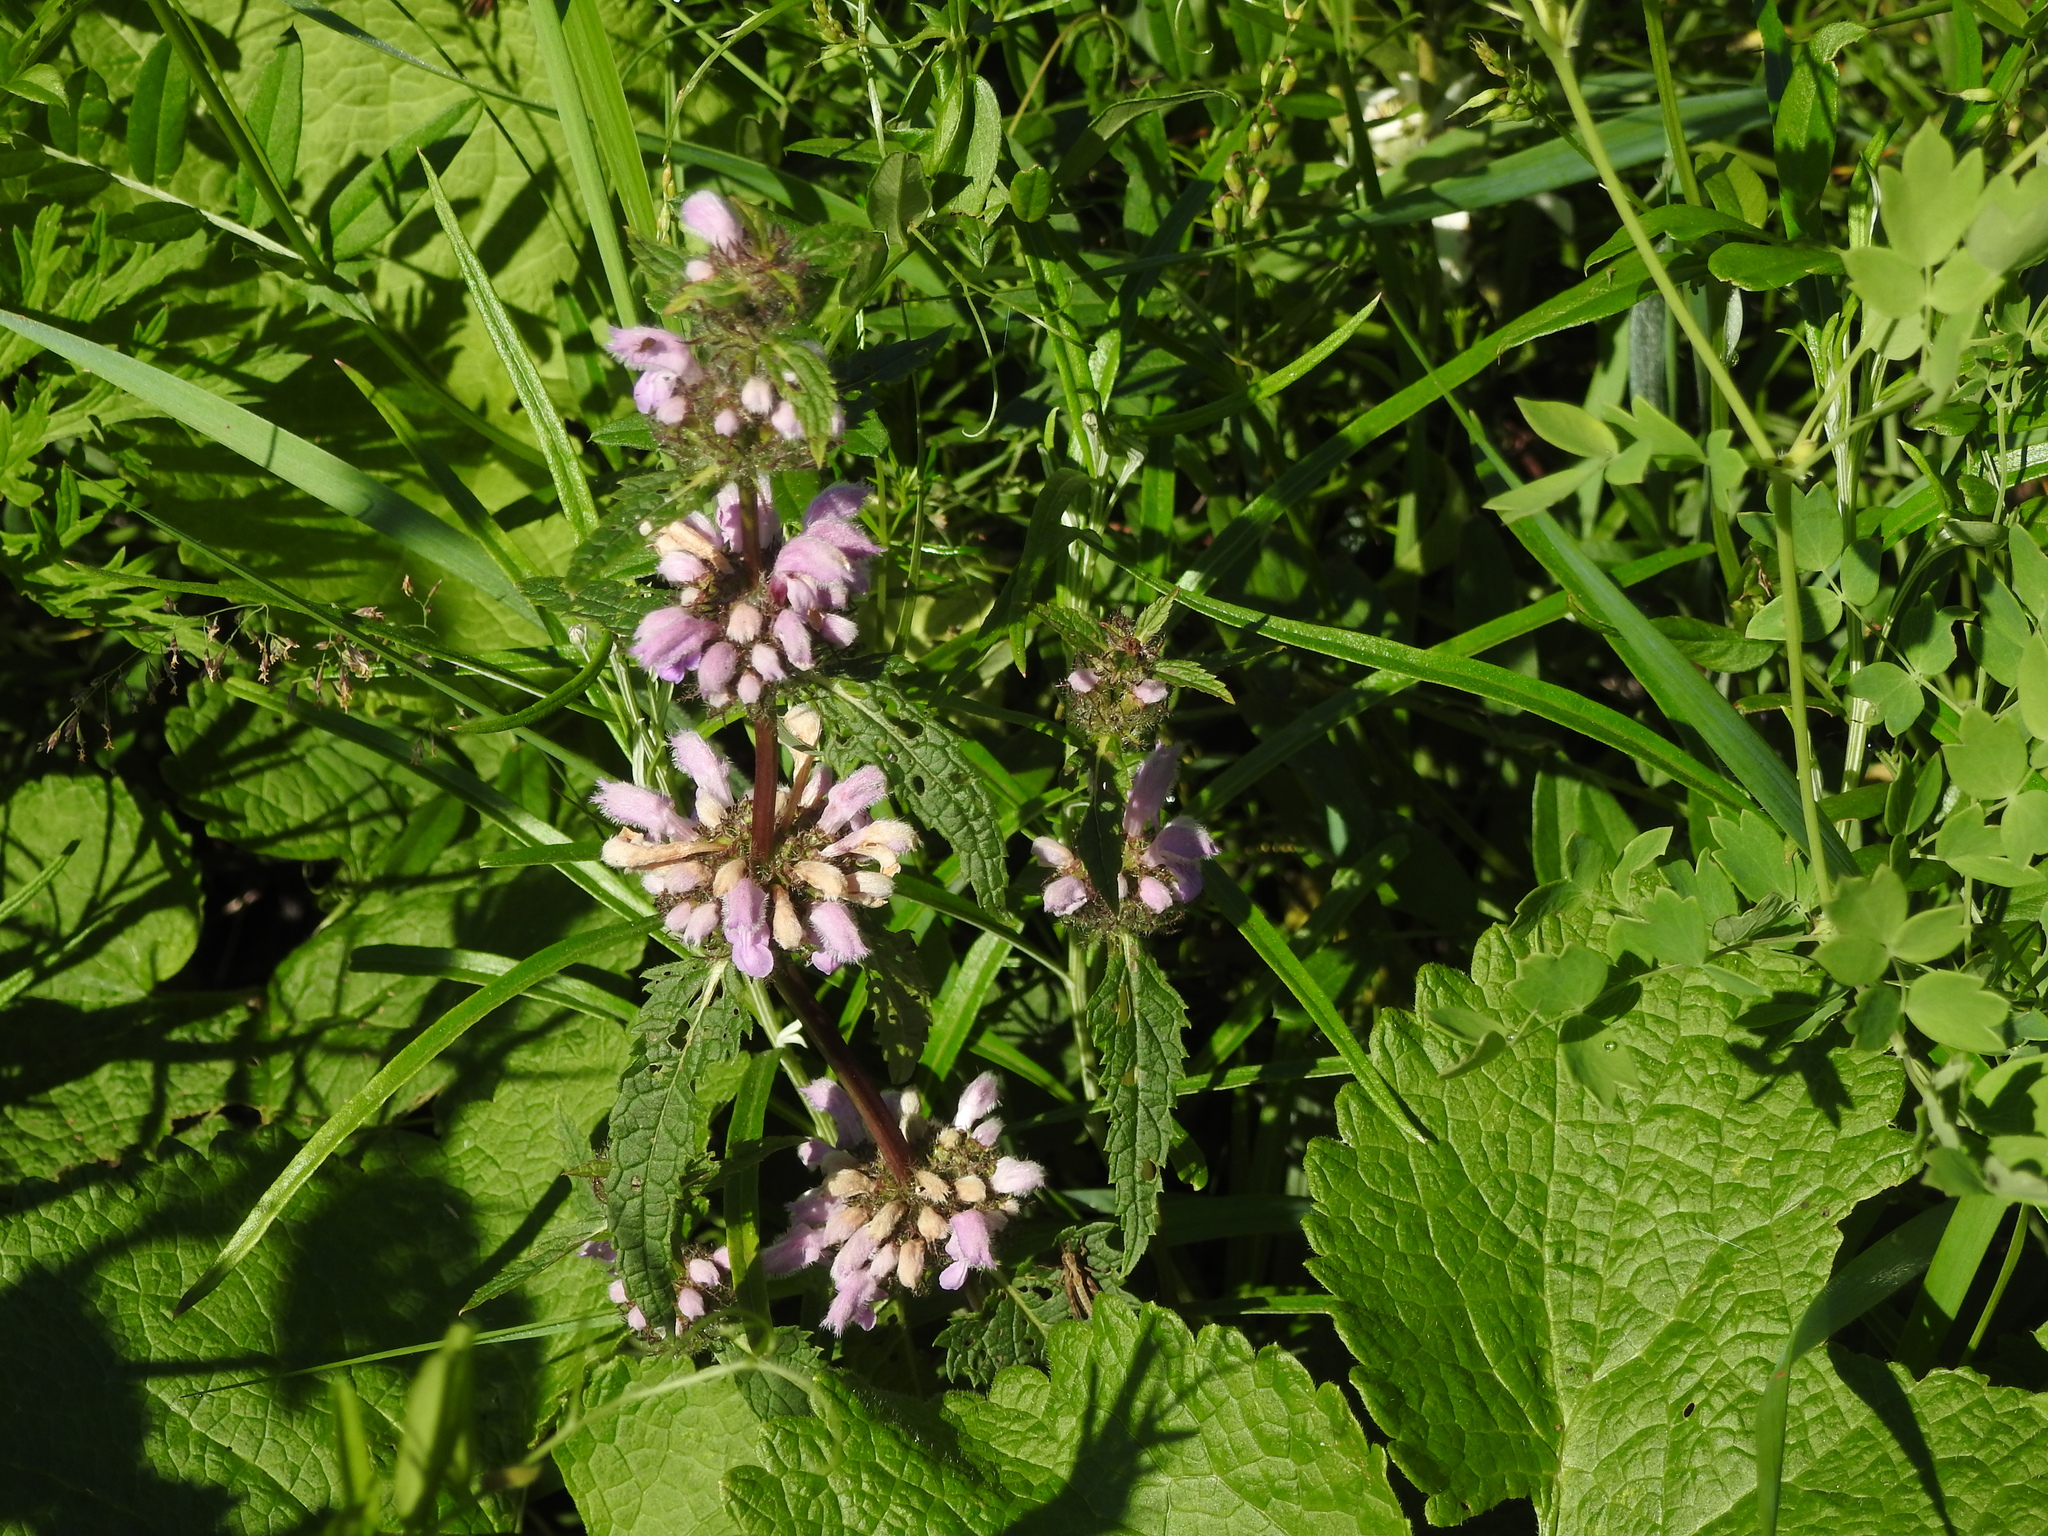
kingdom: Plantae
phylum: Tracheophyta
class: Magnoliopsida
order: Lamiales
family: Lamiaceae
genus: Phlomoides
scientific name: Phlomoides tuberosa
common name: Tuberous jerusalem sage
